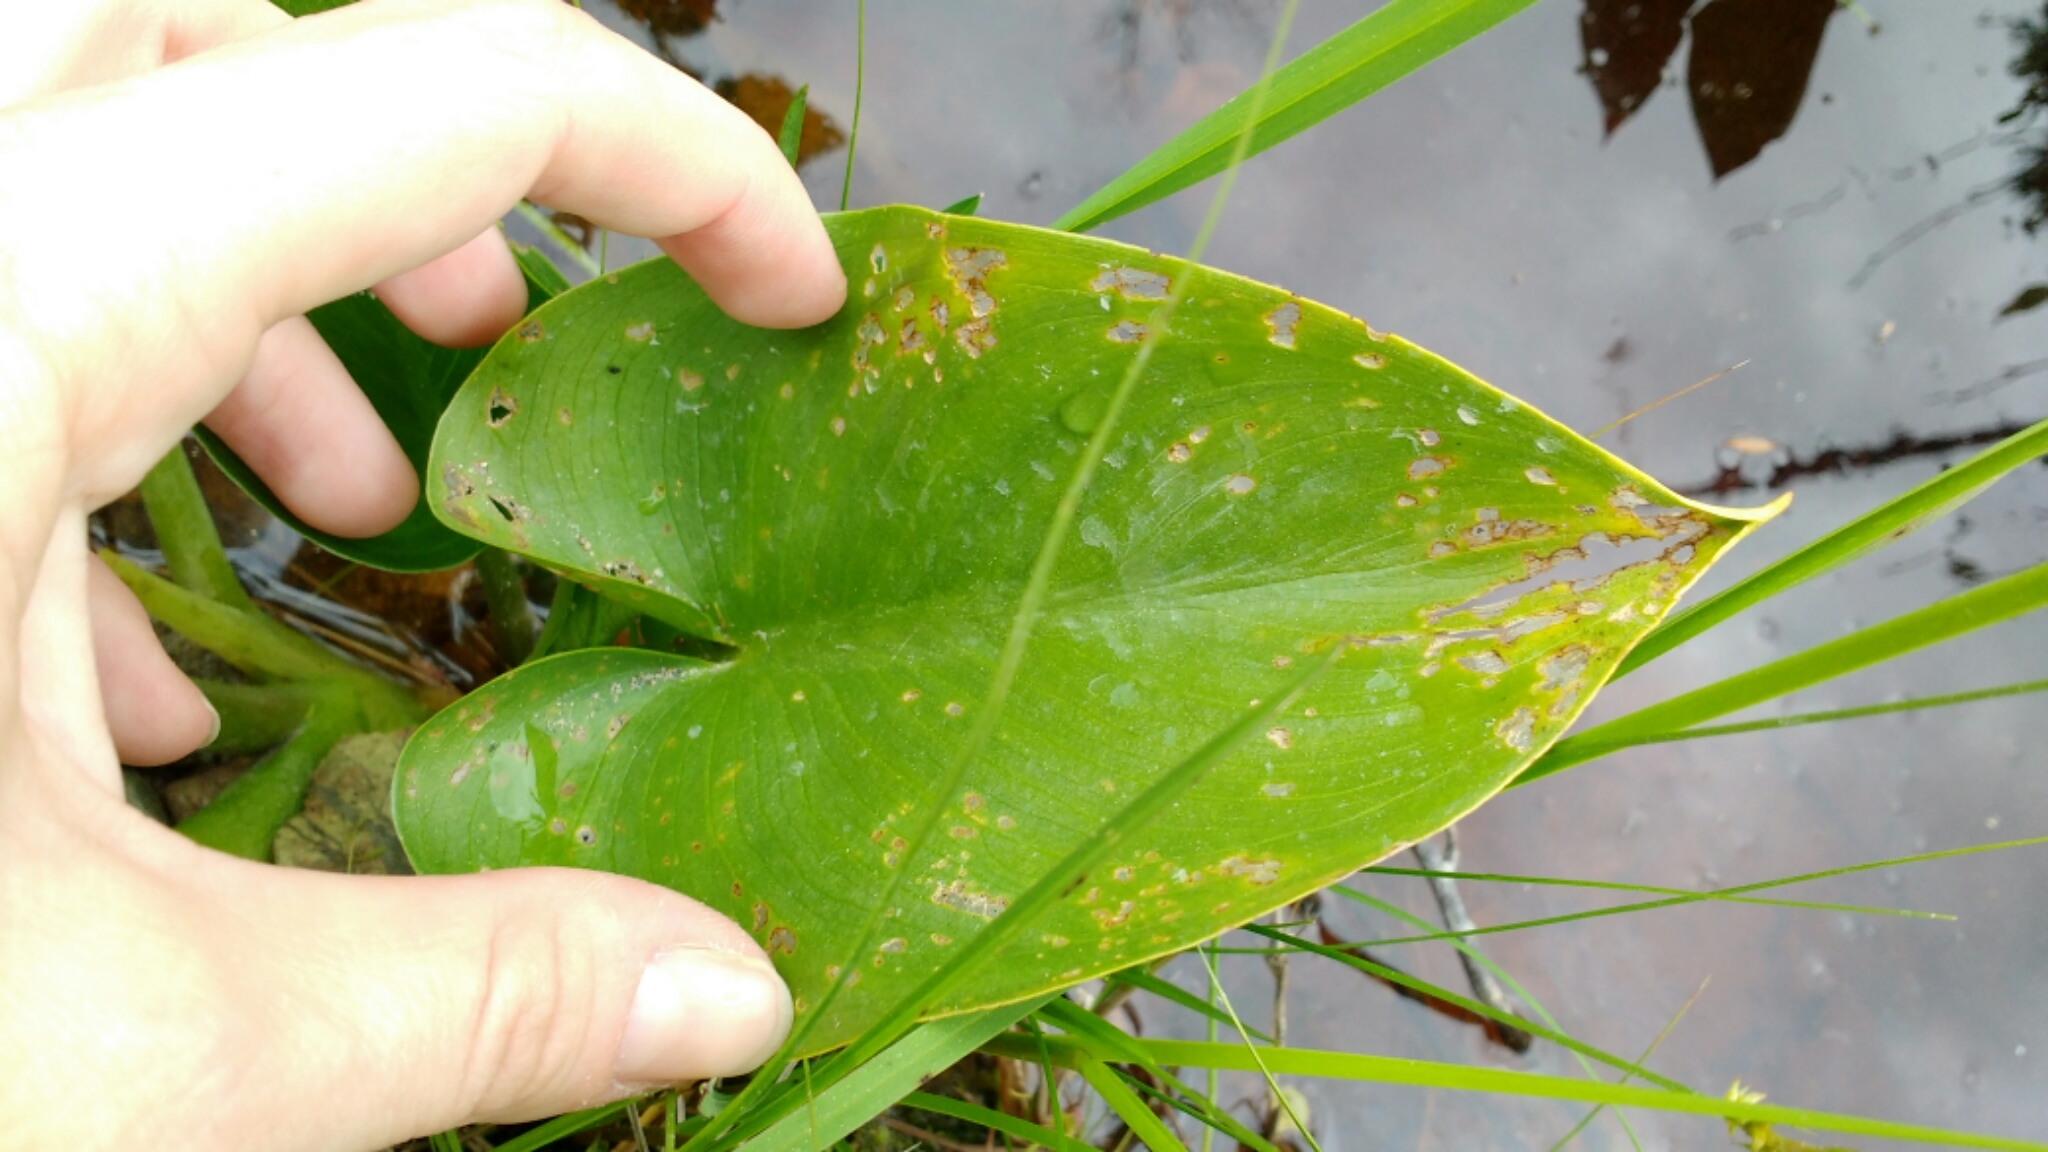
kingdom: Plantae
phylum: Tracheophyta
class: Liliopsida
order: Alismatales
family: Araceae
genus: Calla
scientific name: Calla palustris
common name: Bog arum
